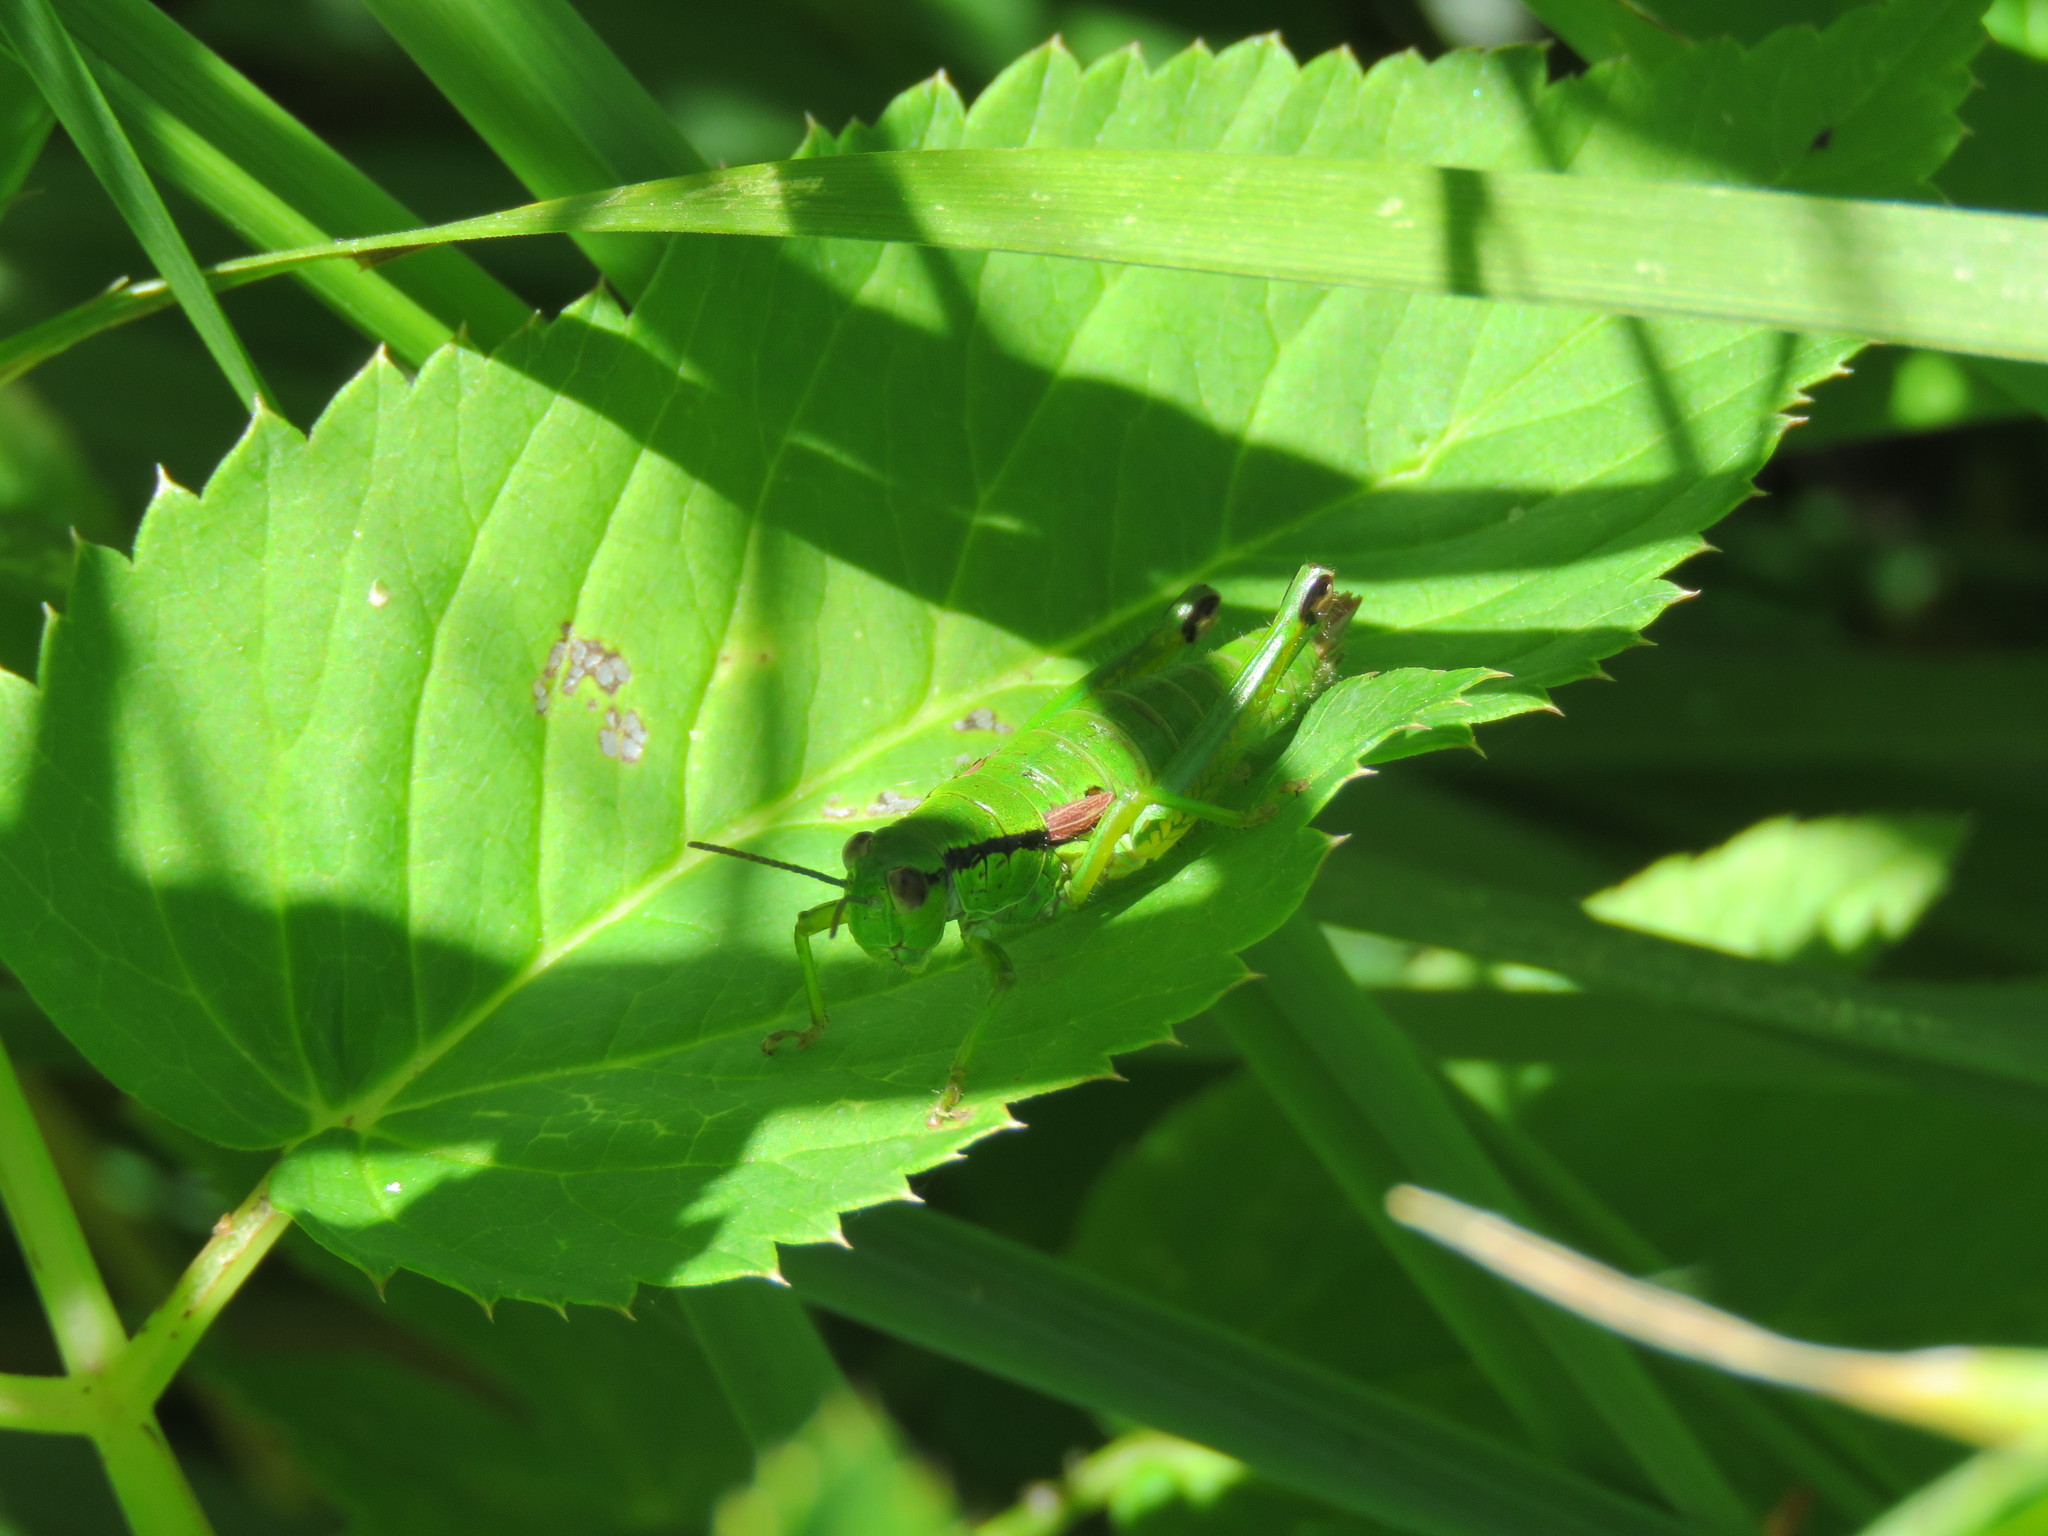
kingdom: Animalia
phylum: Arthropoda
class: Insecta
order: Orthoptera
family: Acrididae
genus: Odontopodisma
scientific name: Odontopodisma schmidtii
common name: Schmidt's mountain grasshopper
